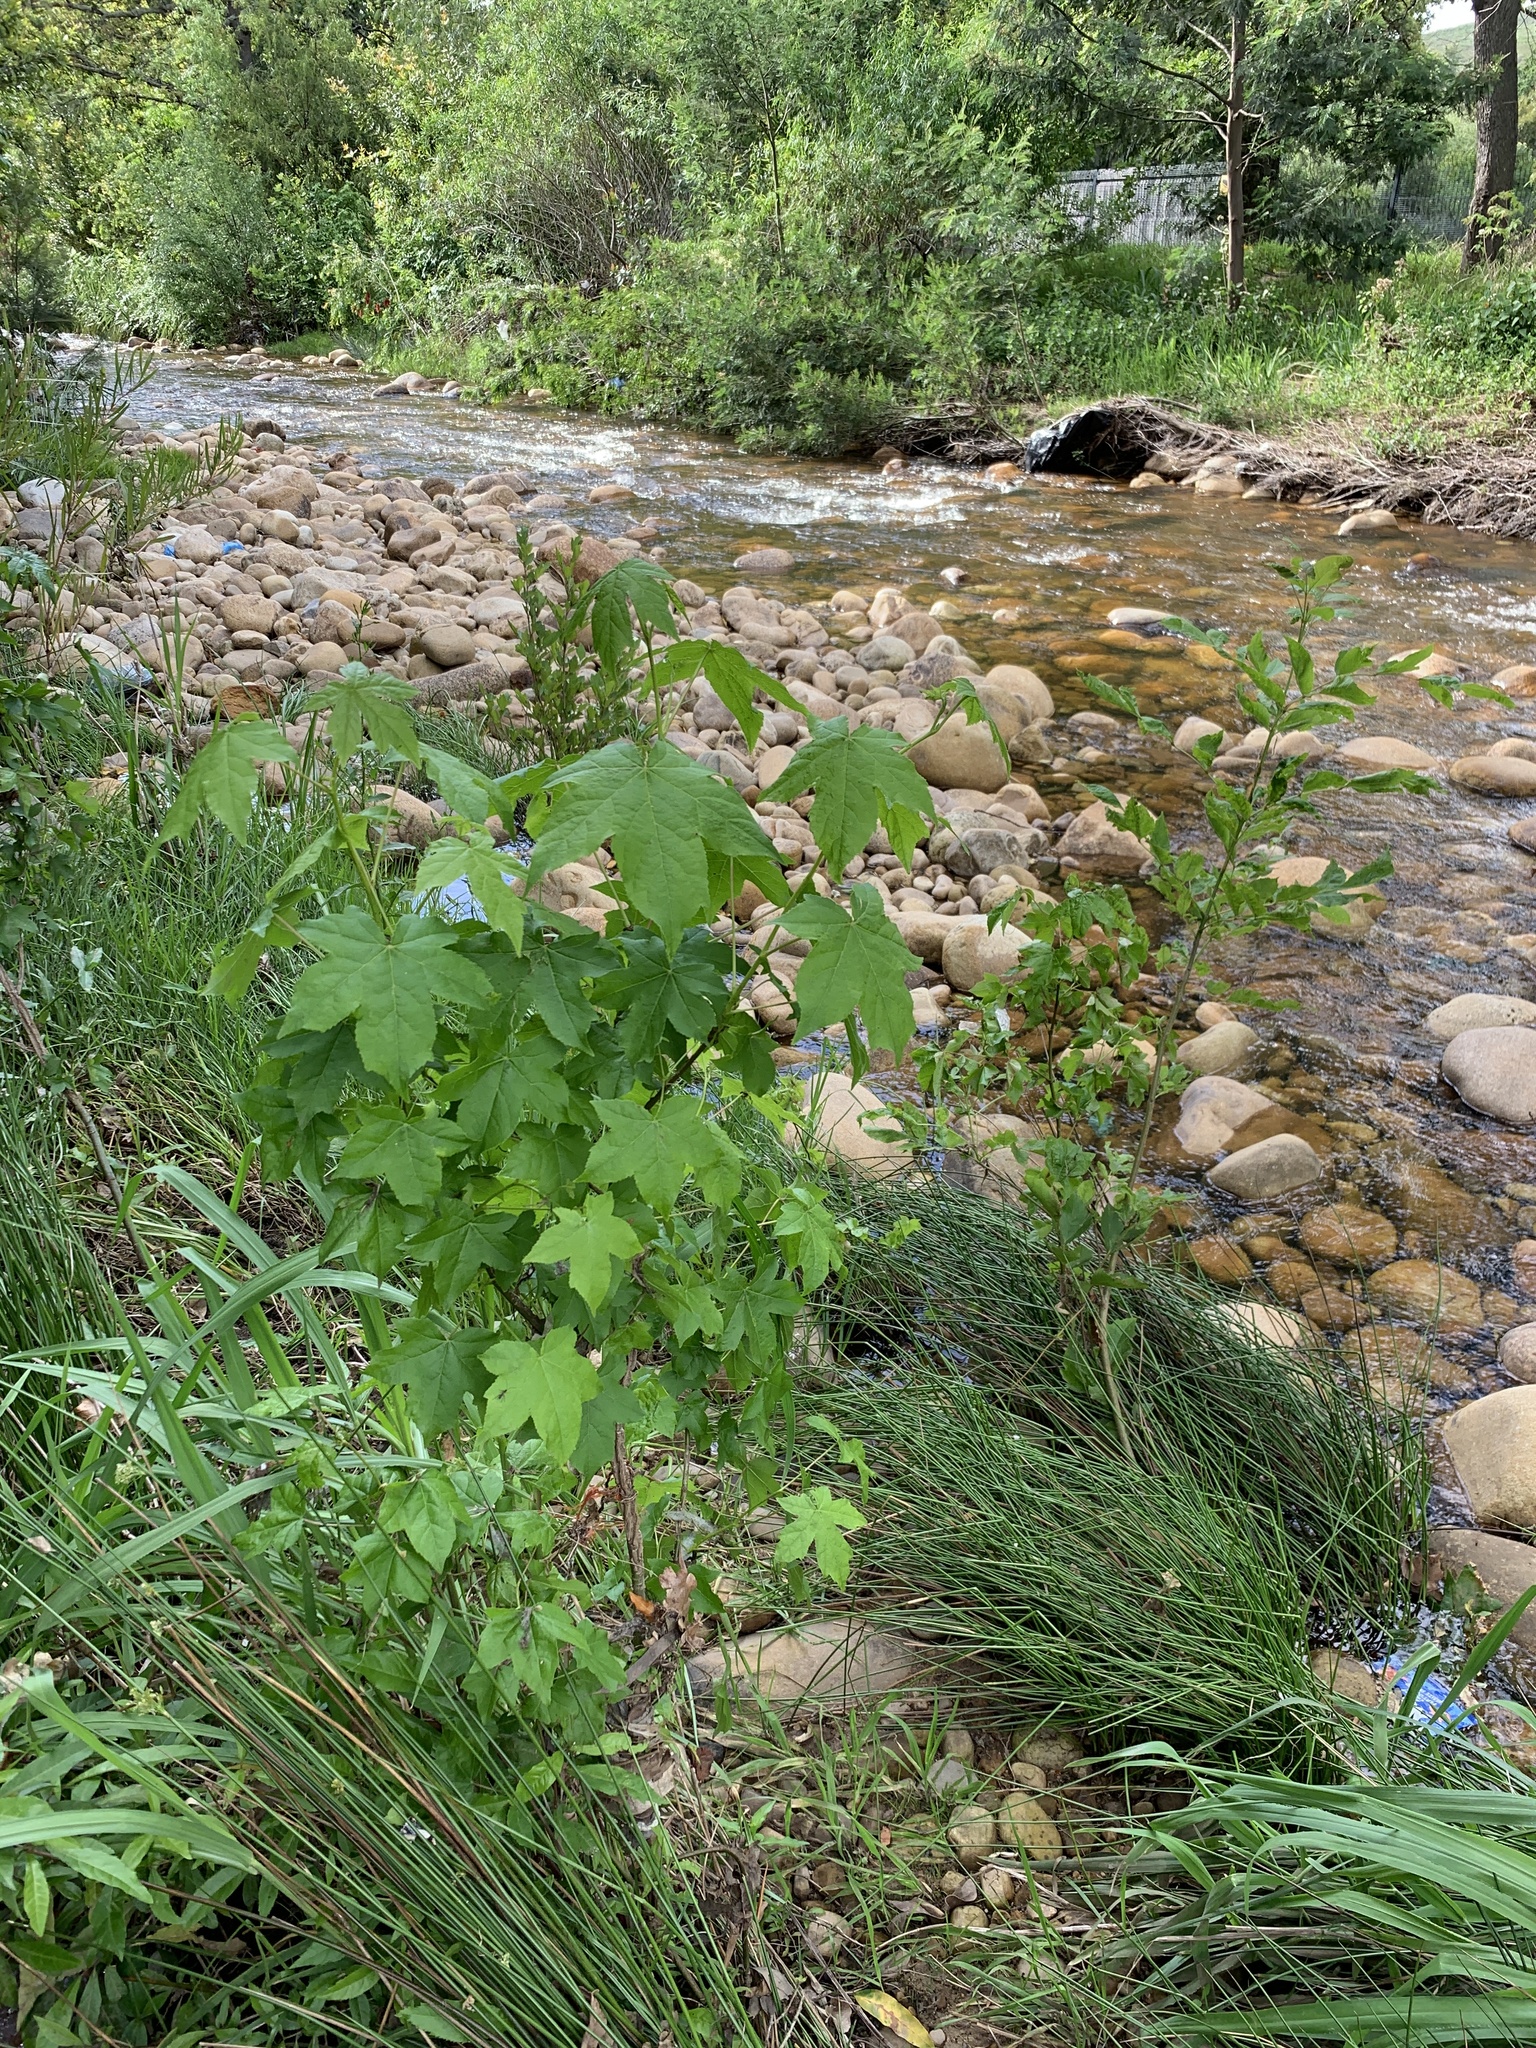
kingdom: Plantae
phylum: Tracheophyta
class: Magnoliopsida
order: Saxifragales
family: Altingiaceae
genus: Liquidambar
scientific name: Liquidambar styraciflua
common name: Sweet gum
